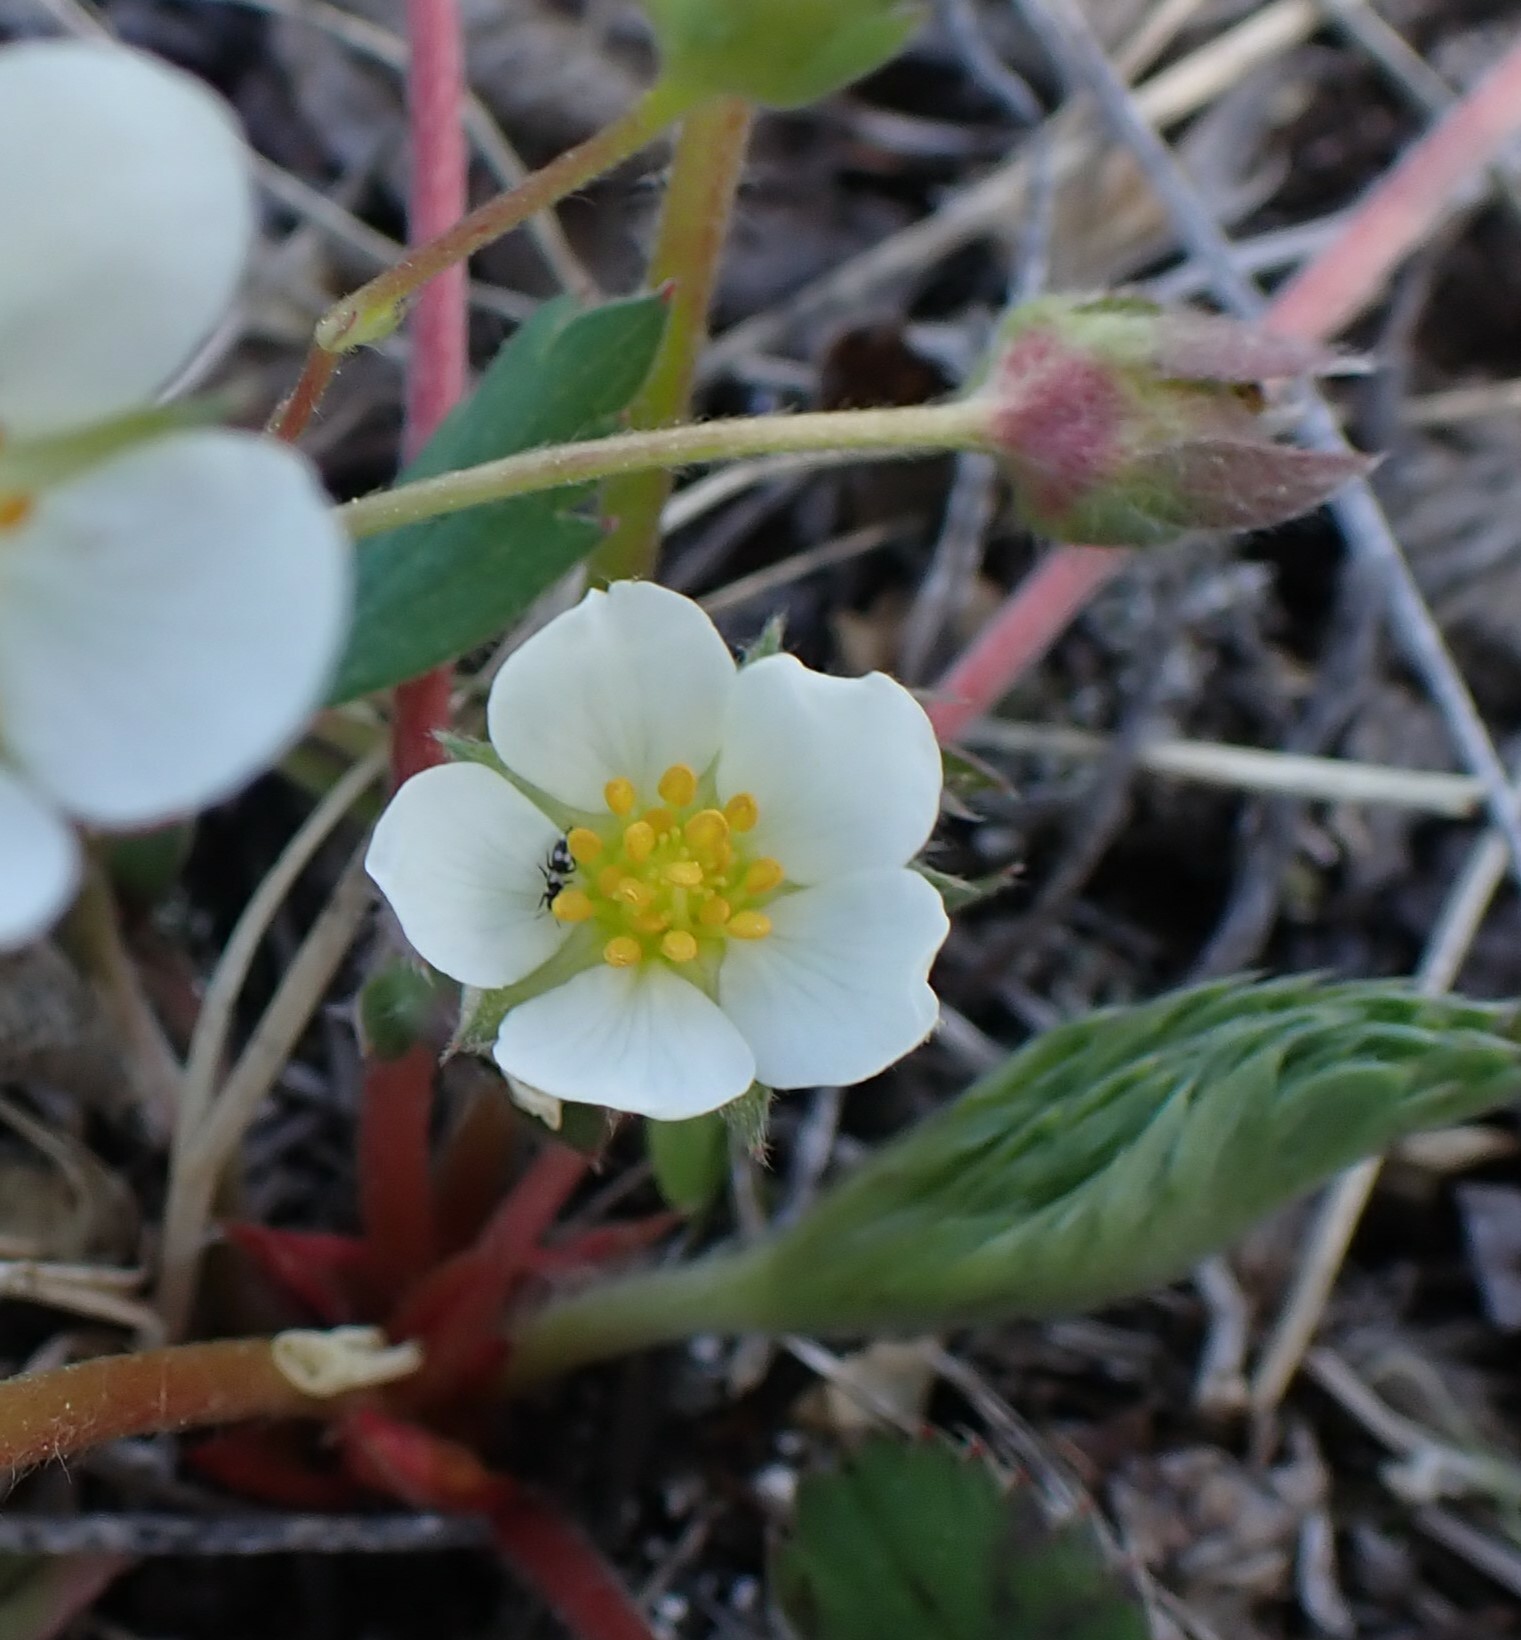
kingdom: Plantae
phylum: Tracheophyta
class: Magnoliopsida
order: Rosales
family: Rosaceae
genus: Fragaria
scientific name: Fragaria virginiana
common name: Thickleaved wild strawberry
